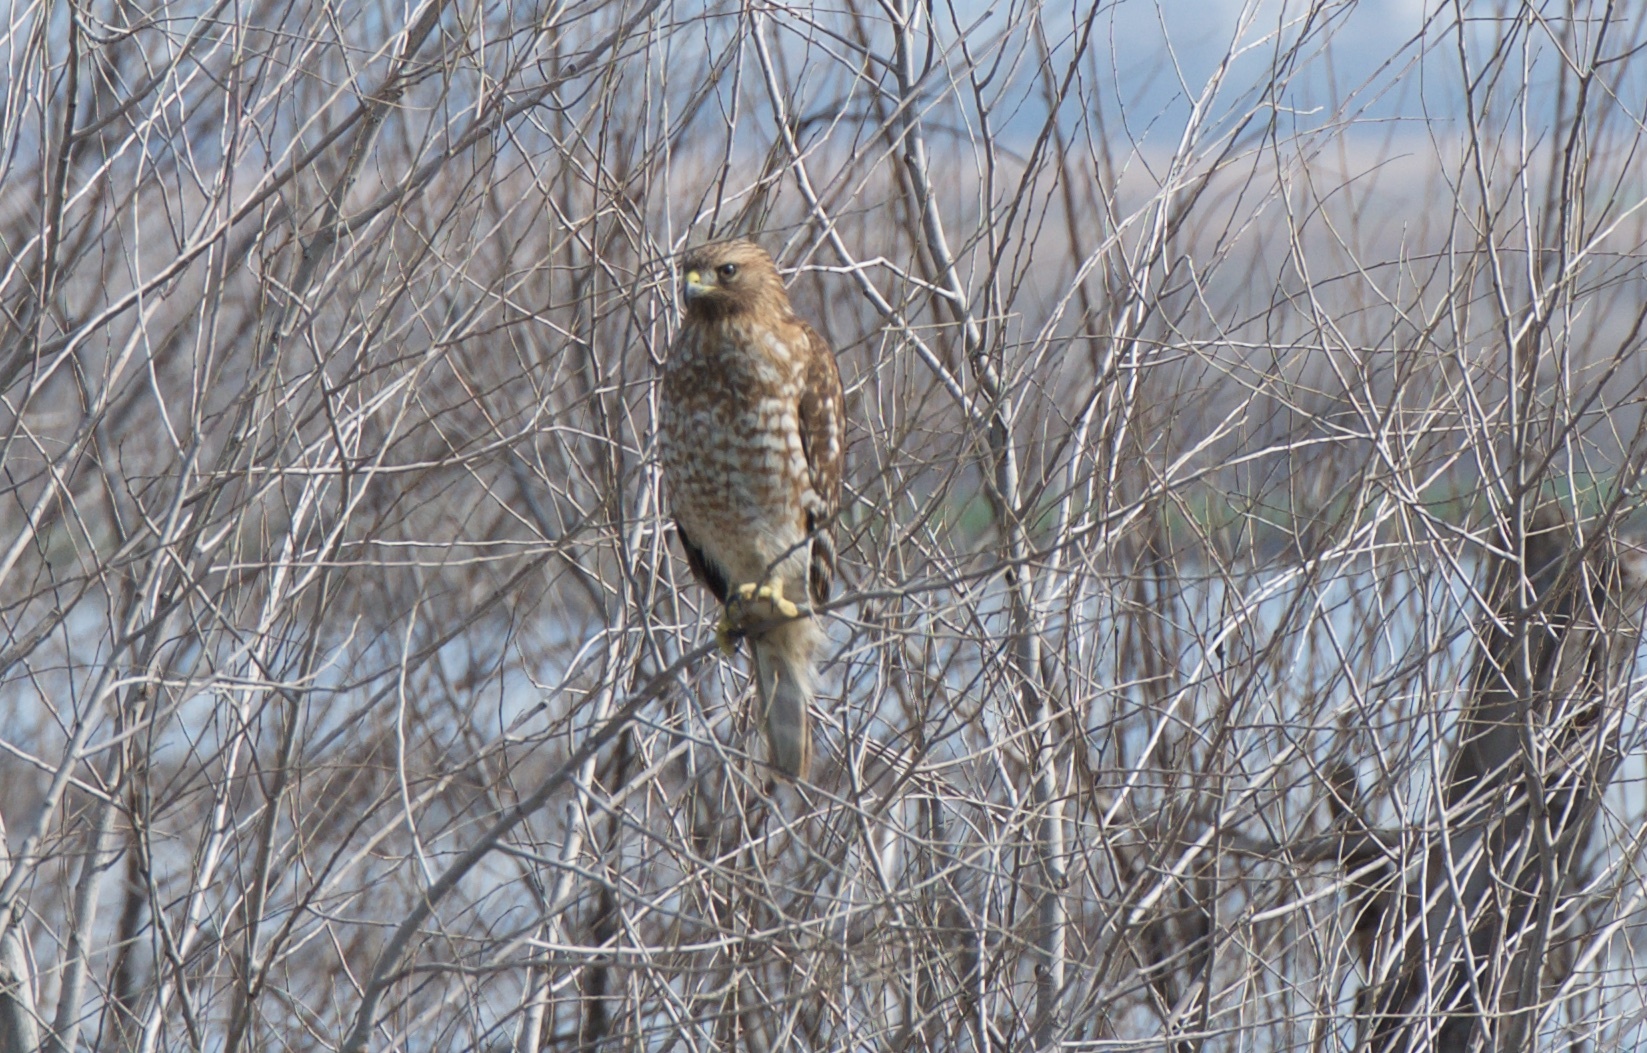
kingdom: Animalia
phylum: Chordata
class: Aves
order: Accipitriformes
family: Accipitridae
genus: Buteo
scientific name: Buteo lineatus
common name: Red-shouldered hawk
